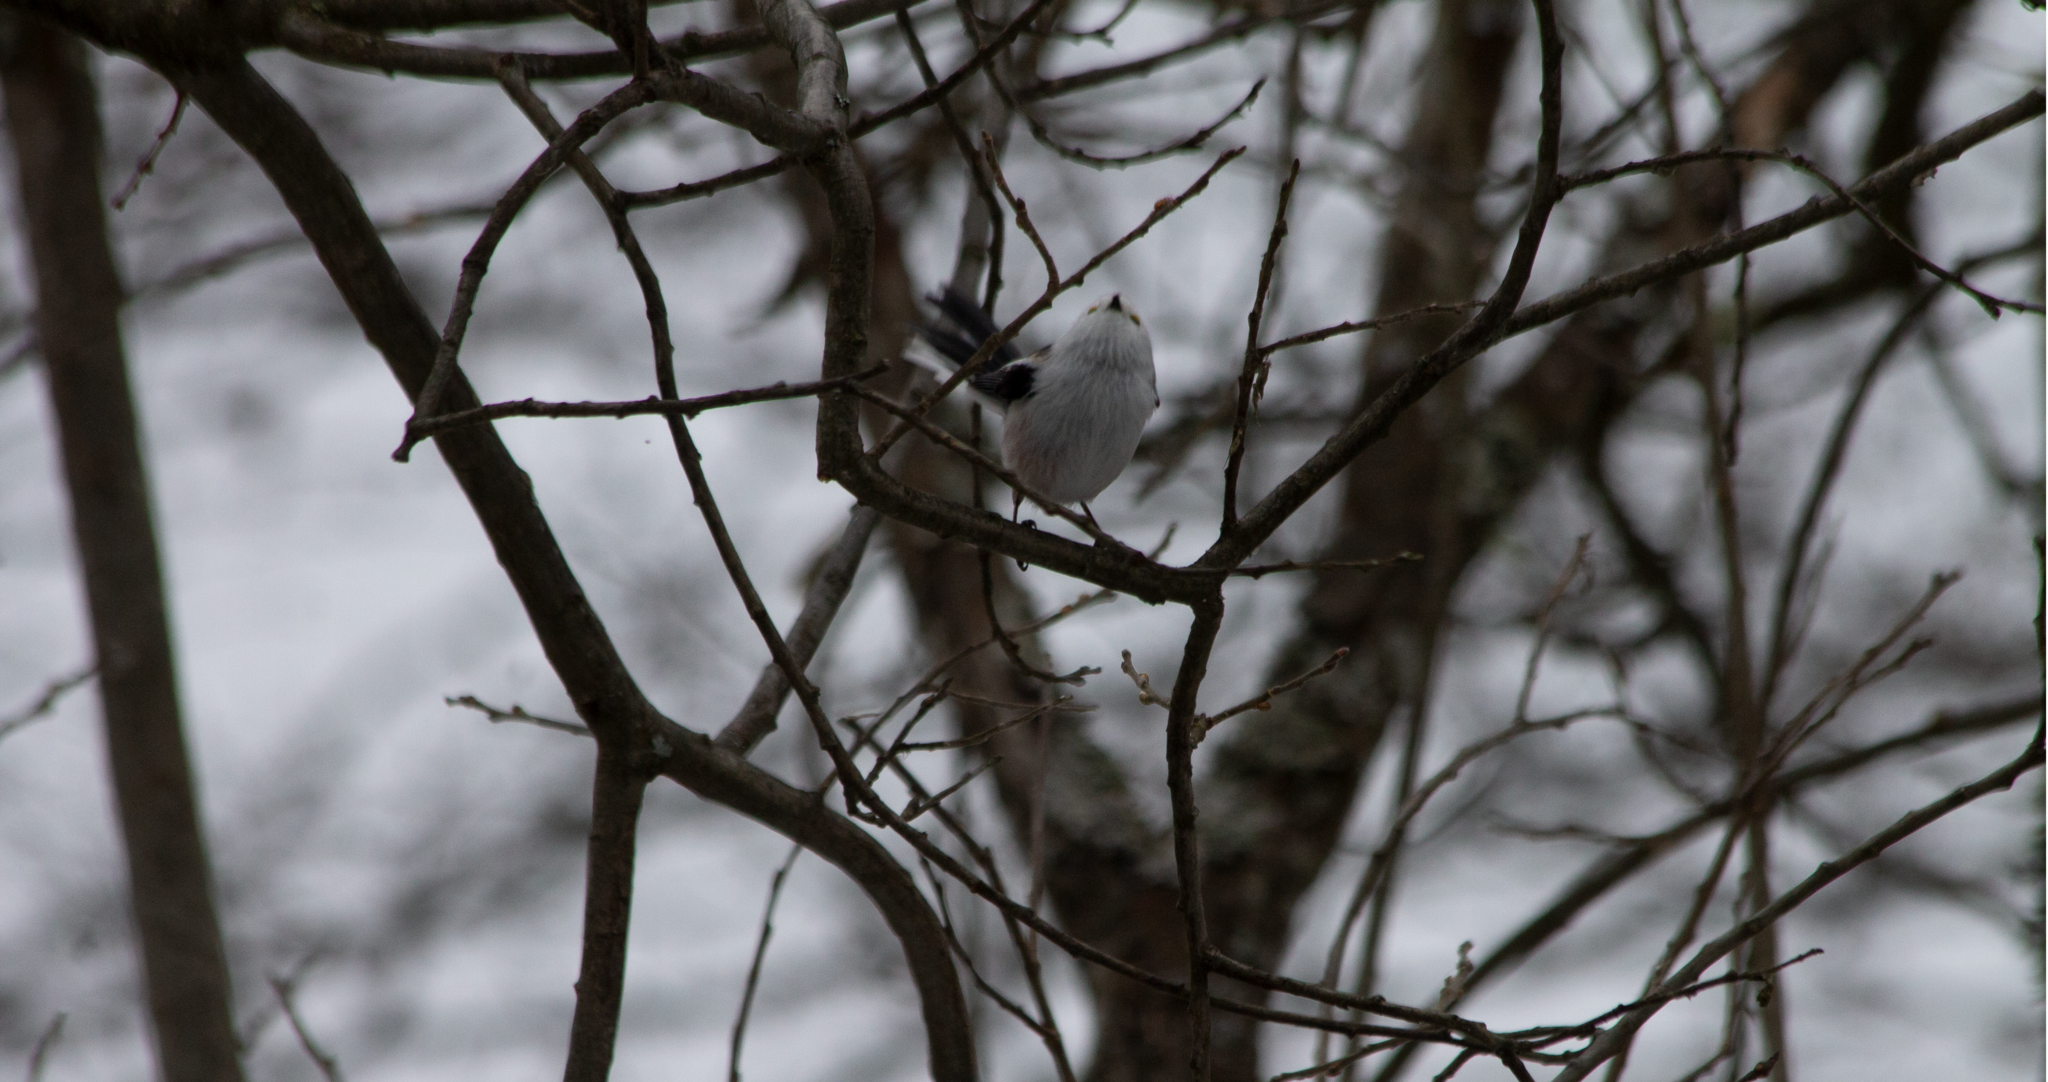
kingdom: Animalia
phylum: Chordata
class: Aves
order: Passeriformes
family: Aegithalidae
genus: Aegithalos
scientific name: Aegithalos caudatus
